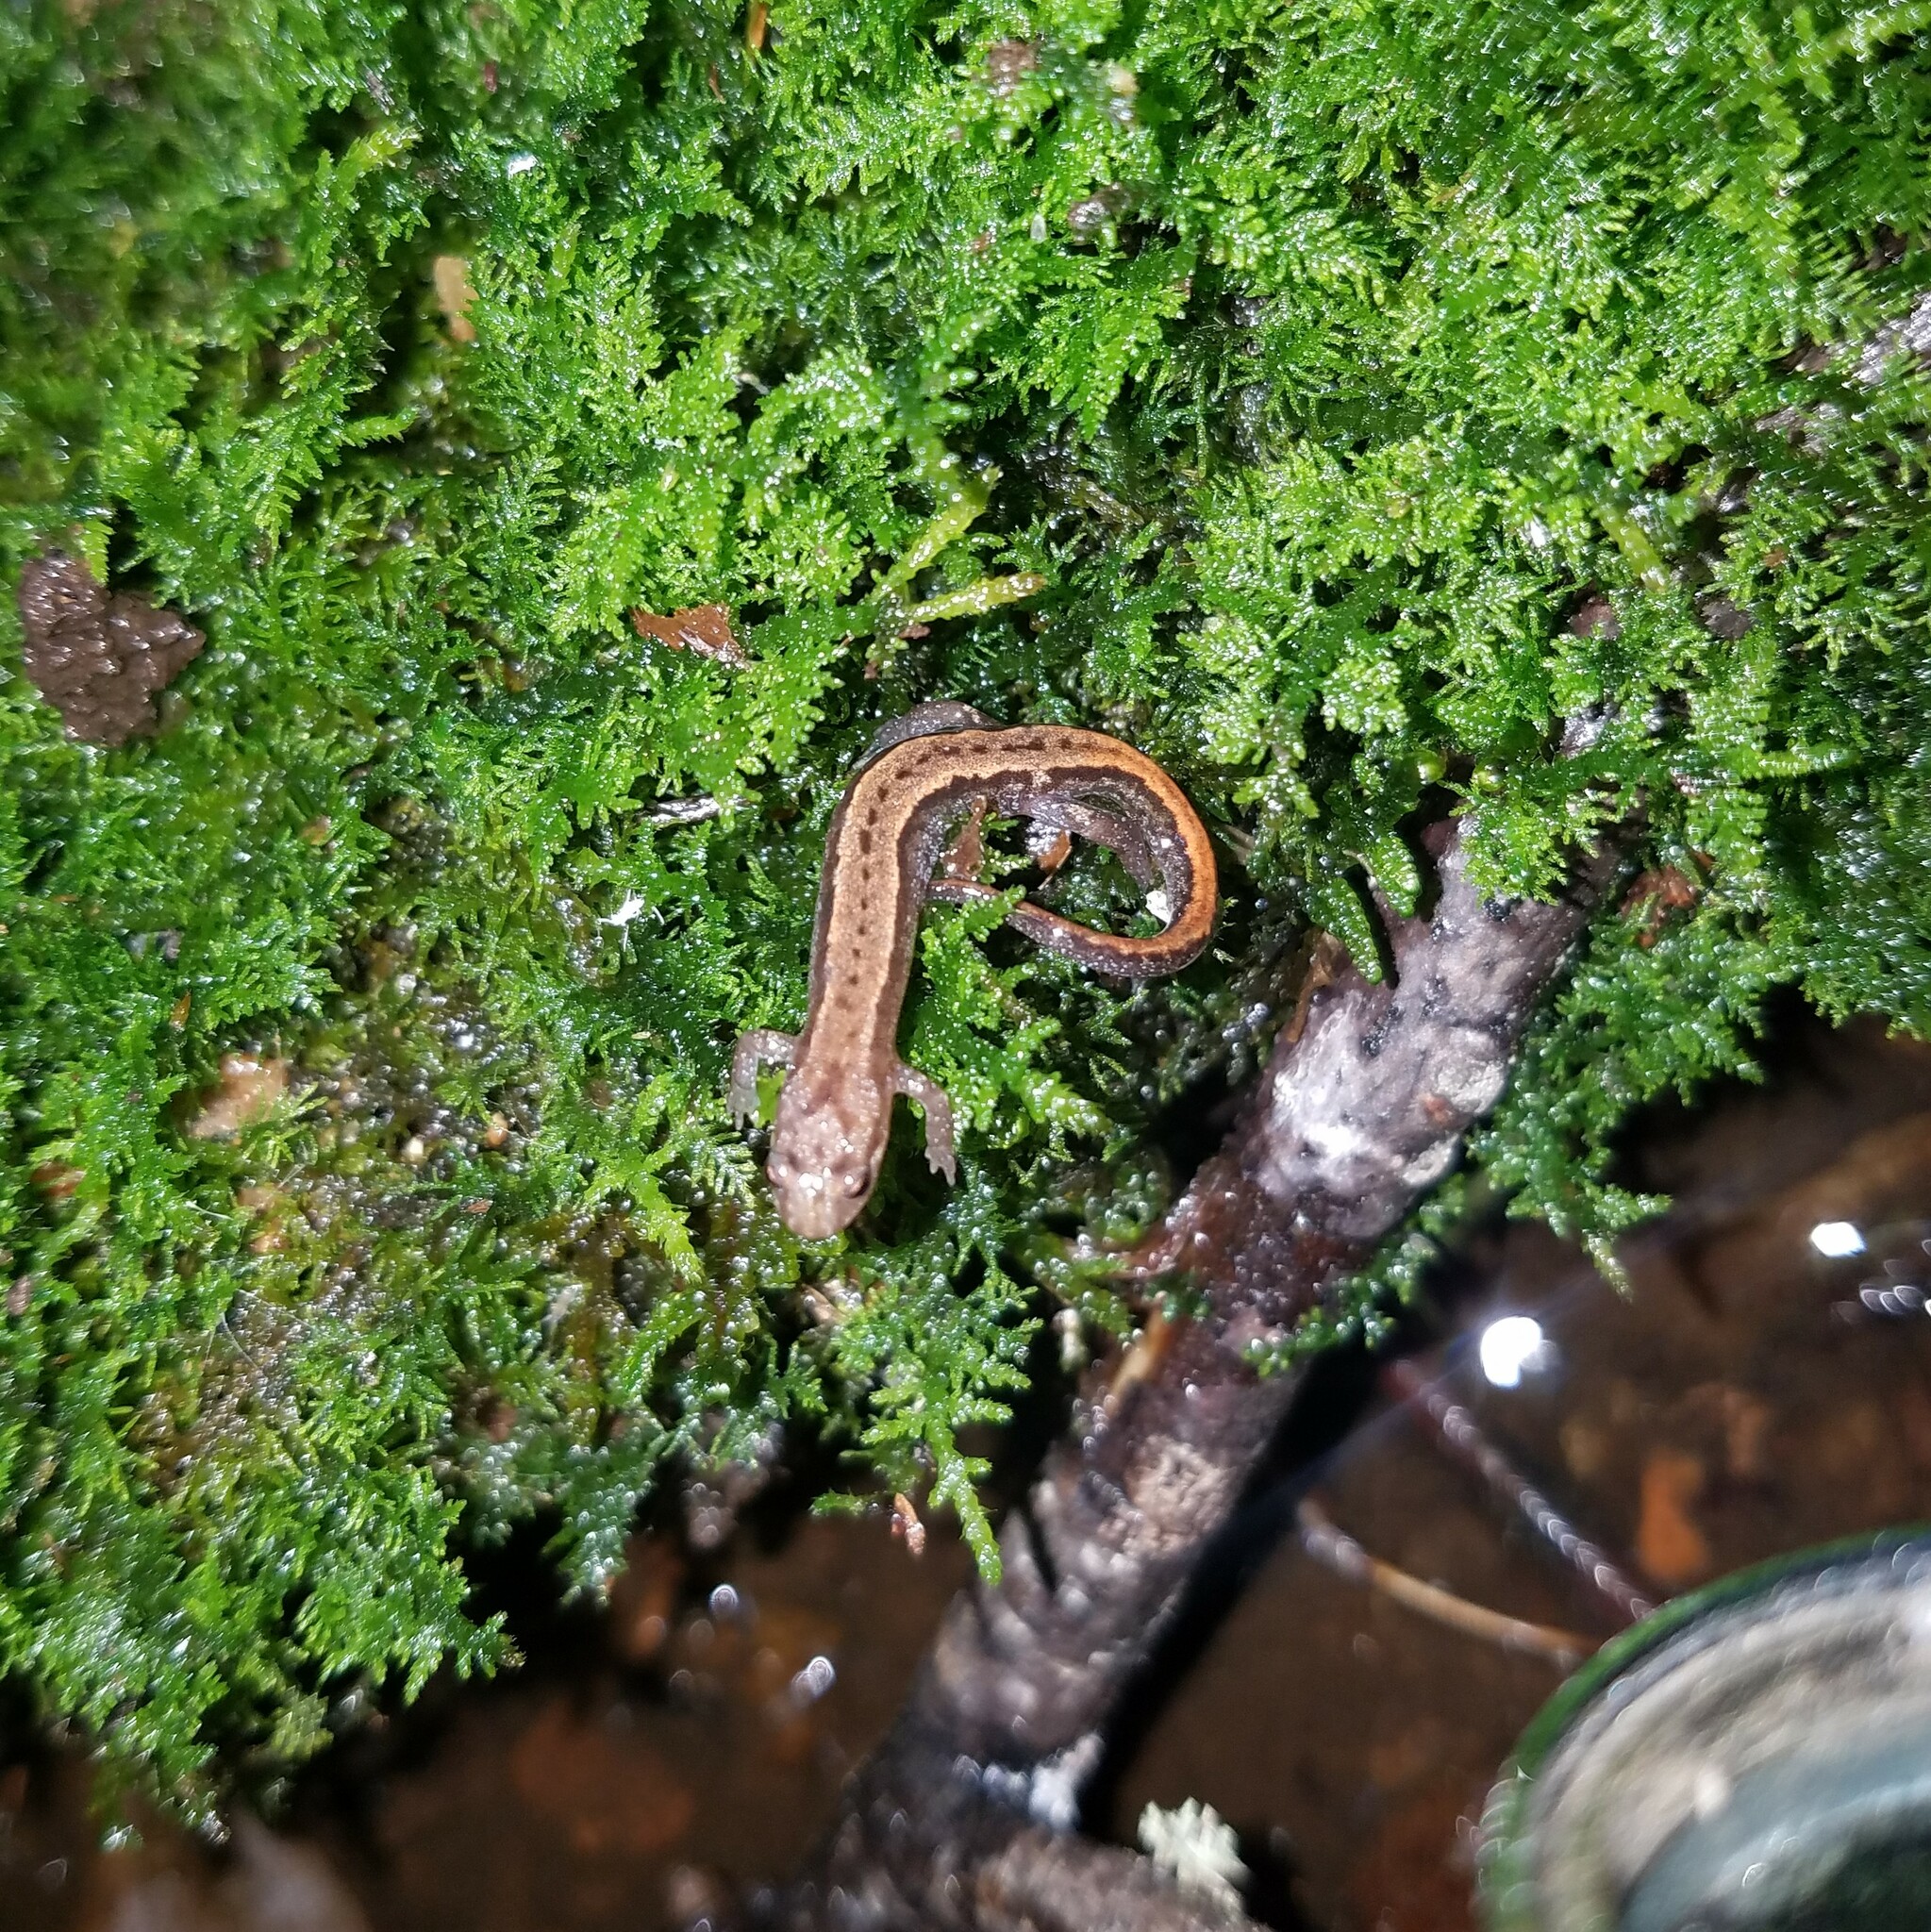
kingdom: Animalia
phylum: Chordata
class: Amphibia
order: Caudata
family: Plethodontidae
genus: Desmognathus
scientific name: Desmognathus aeneus
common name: Seepage salamander
